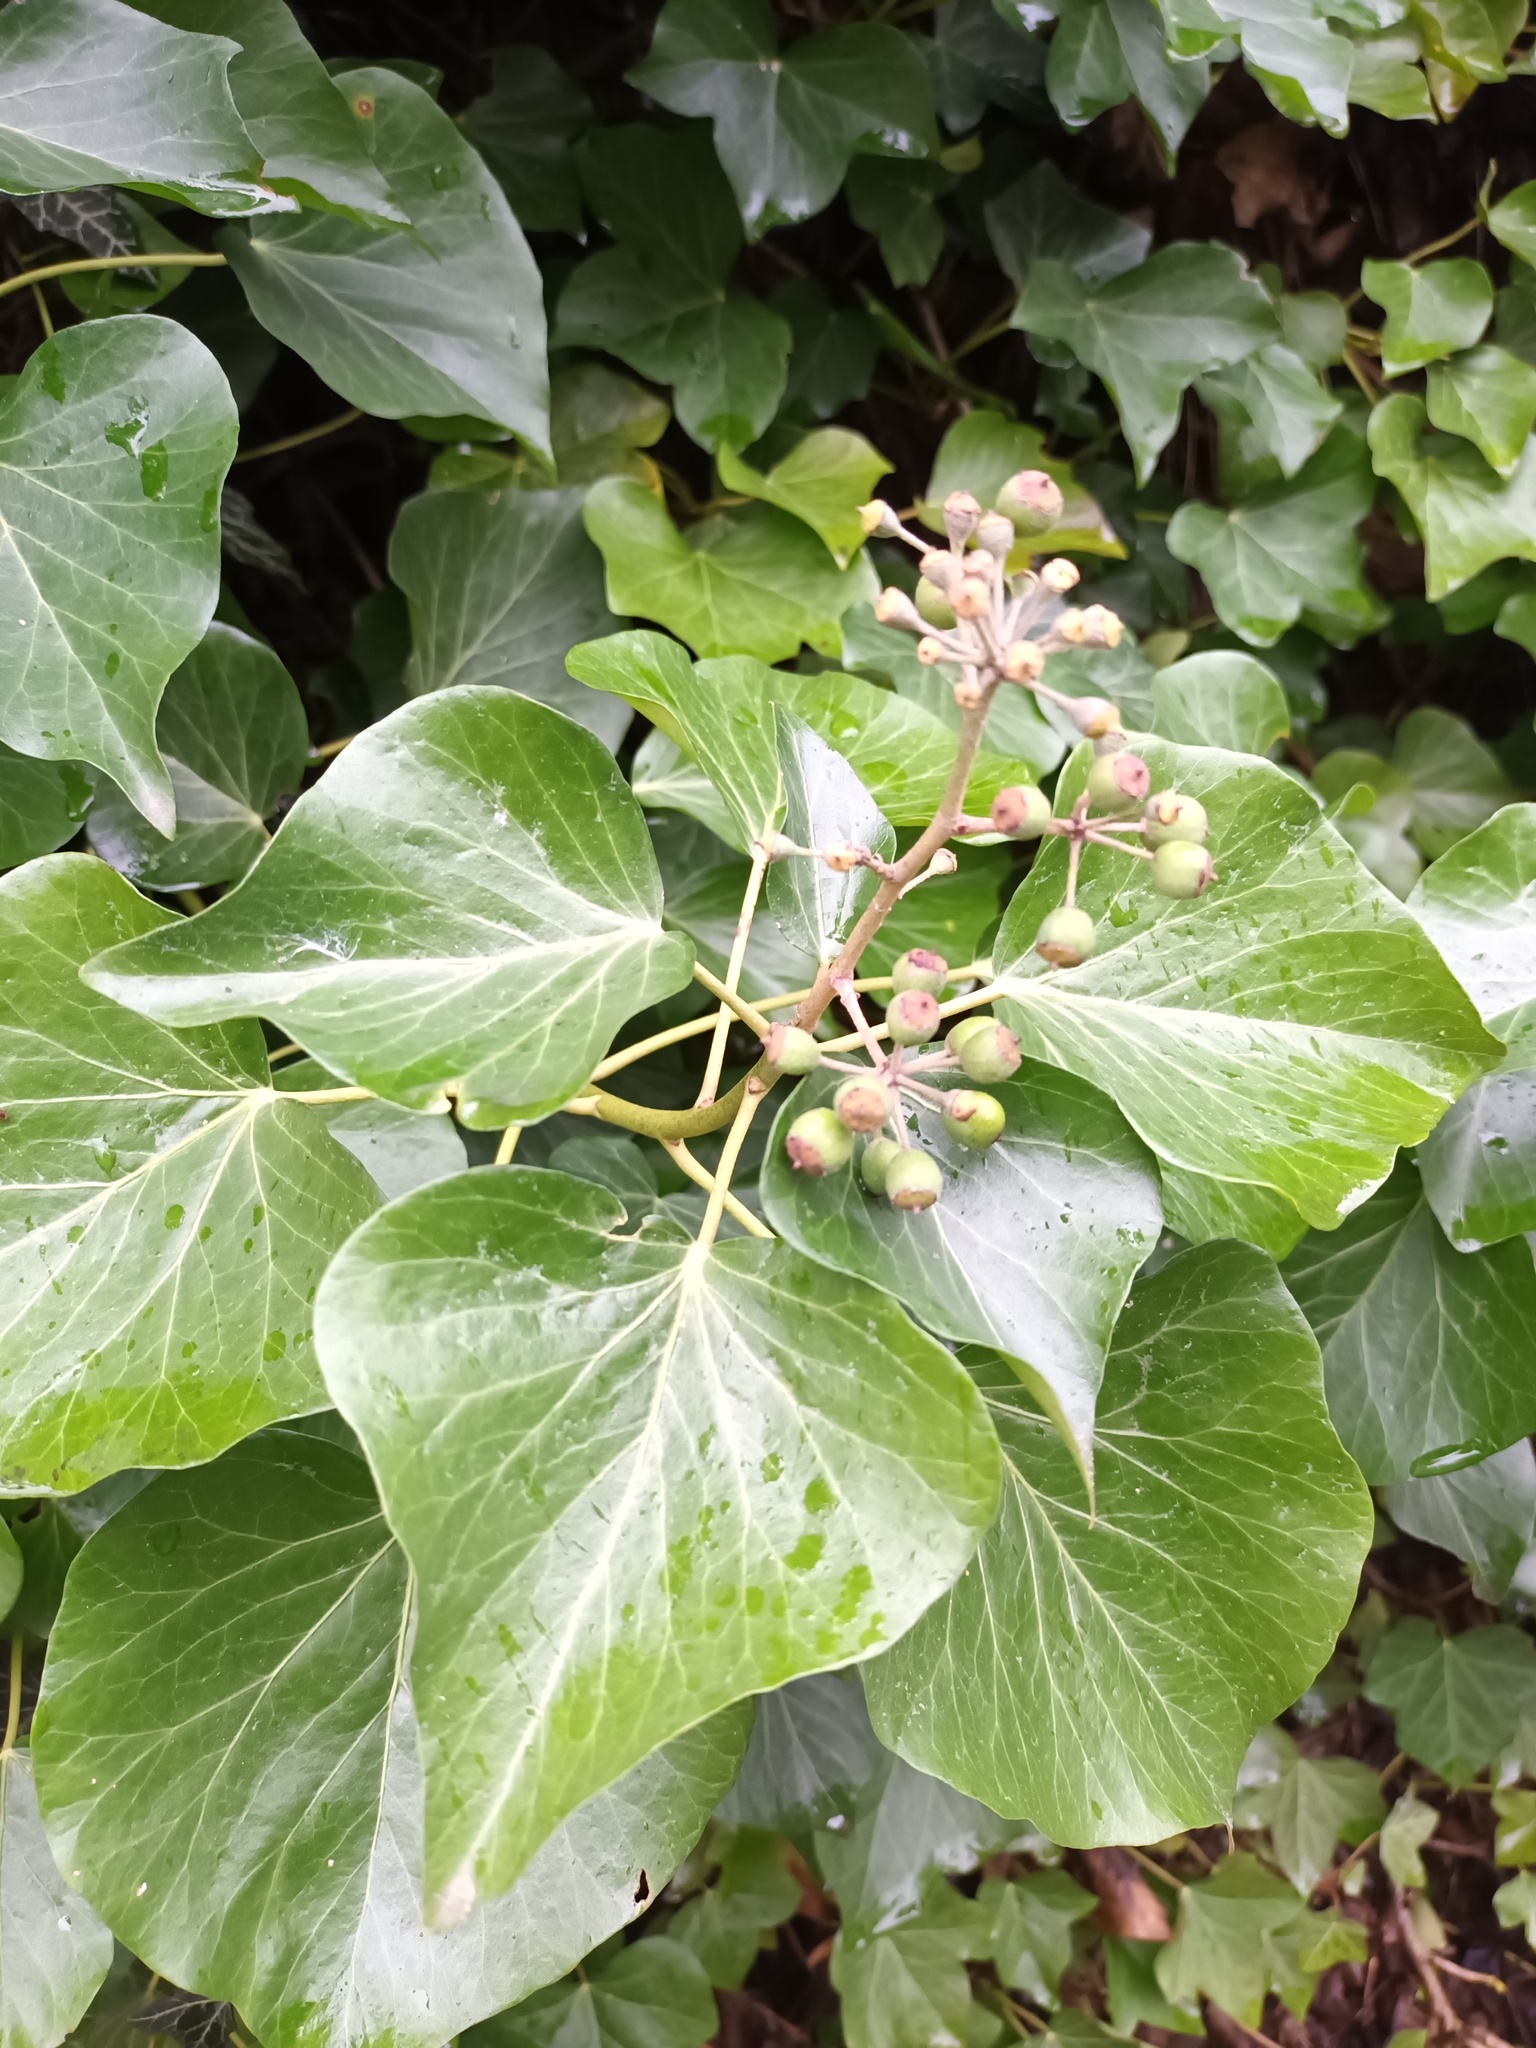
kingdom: Plantae
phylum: Tracheophyta
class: Magnoliopsida
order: Apiales
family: Araliaceae
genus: Hedera
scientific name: Hedera helix
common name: Ivy
